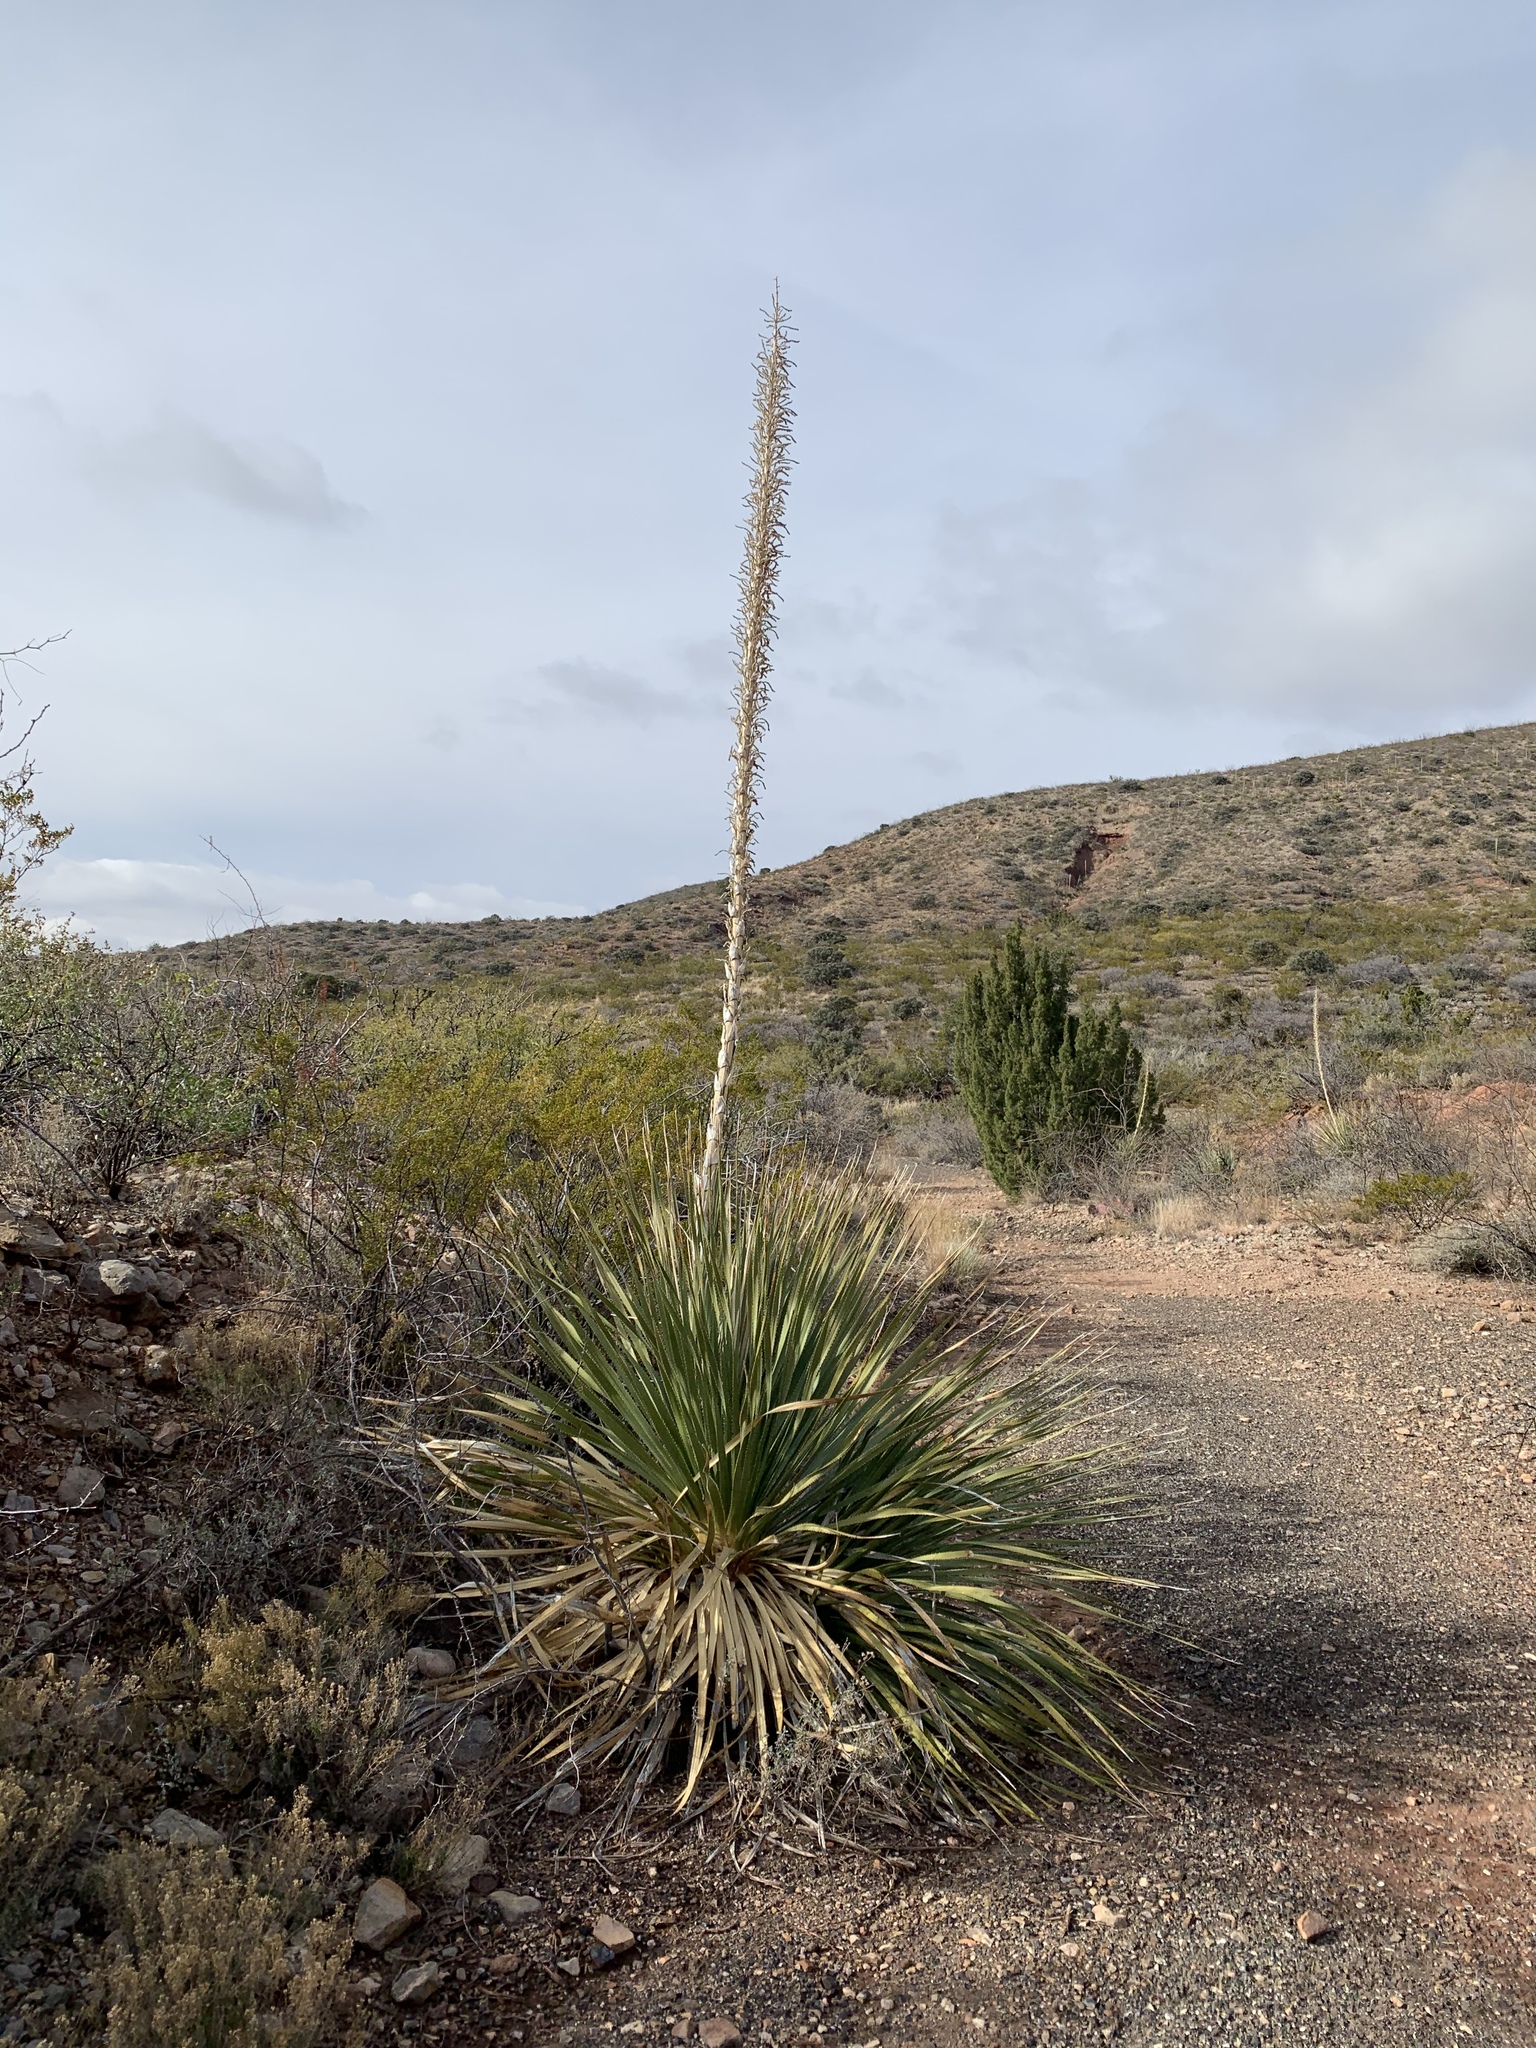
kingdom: Plantae
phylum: Tracheophyta
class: Liliopsida
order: Asparagales
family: Asparagaceae
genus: Dasylirion
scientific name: Dasylirion wheeleri
